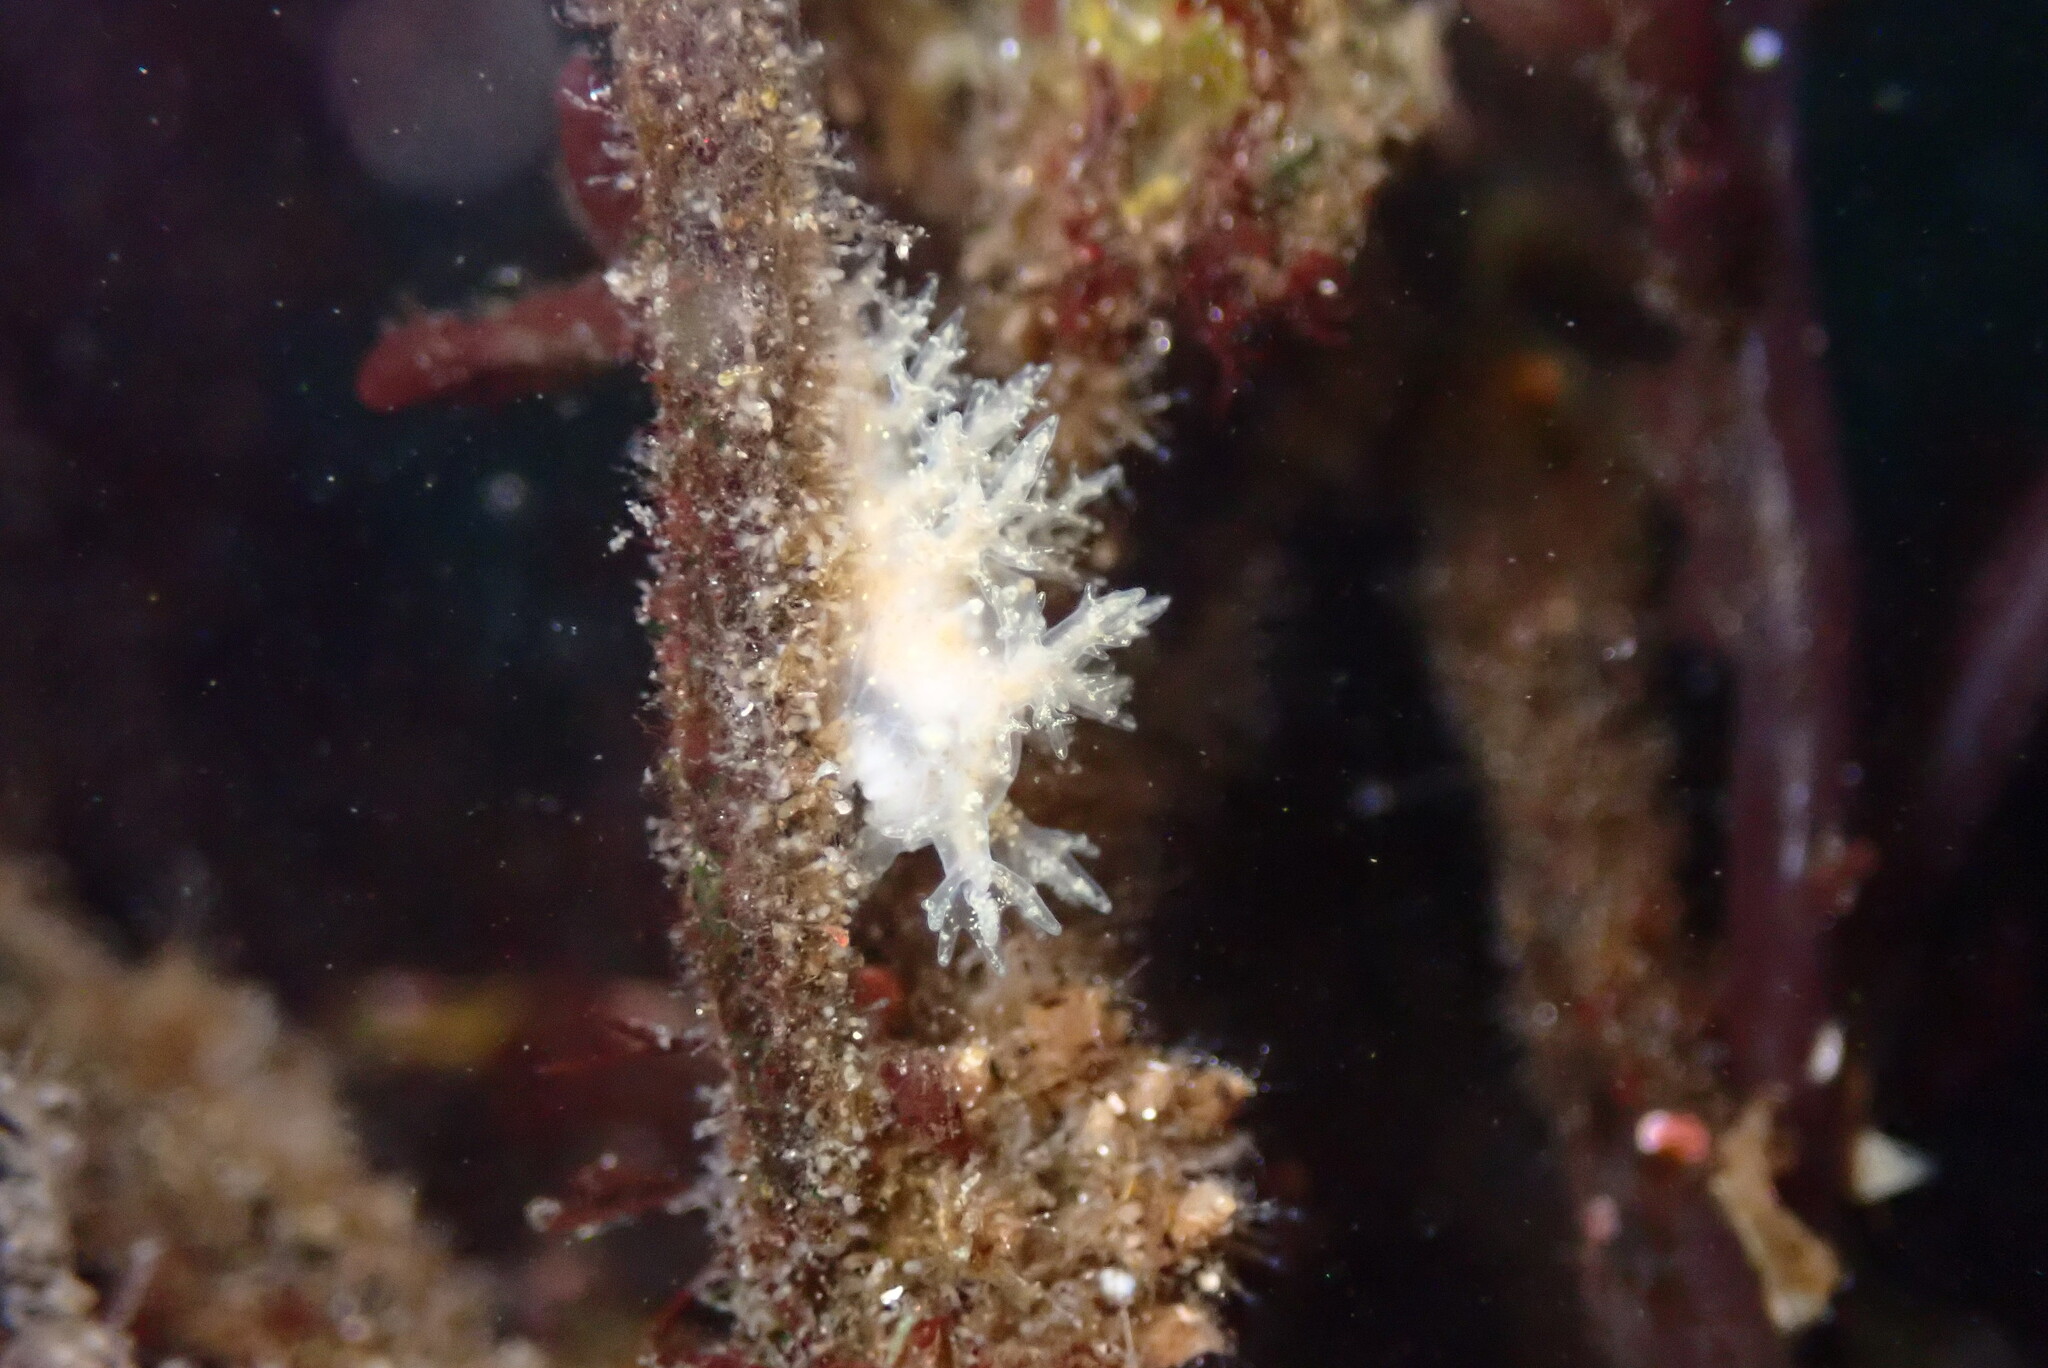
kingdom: Animalia
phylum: Mollusca
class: Gastropoda
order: Nudibranchia
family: Dendronotidae
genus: Dendronotus
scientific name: Dendronotus venustus
